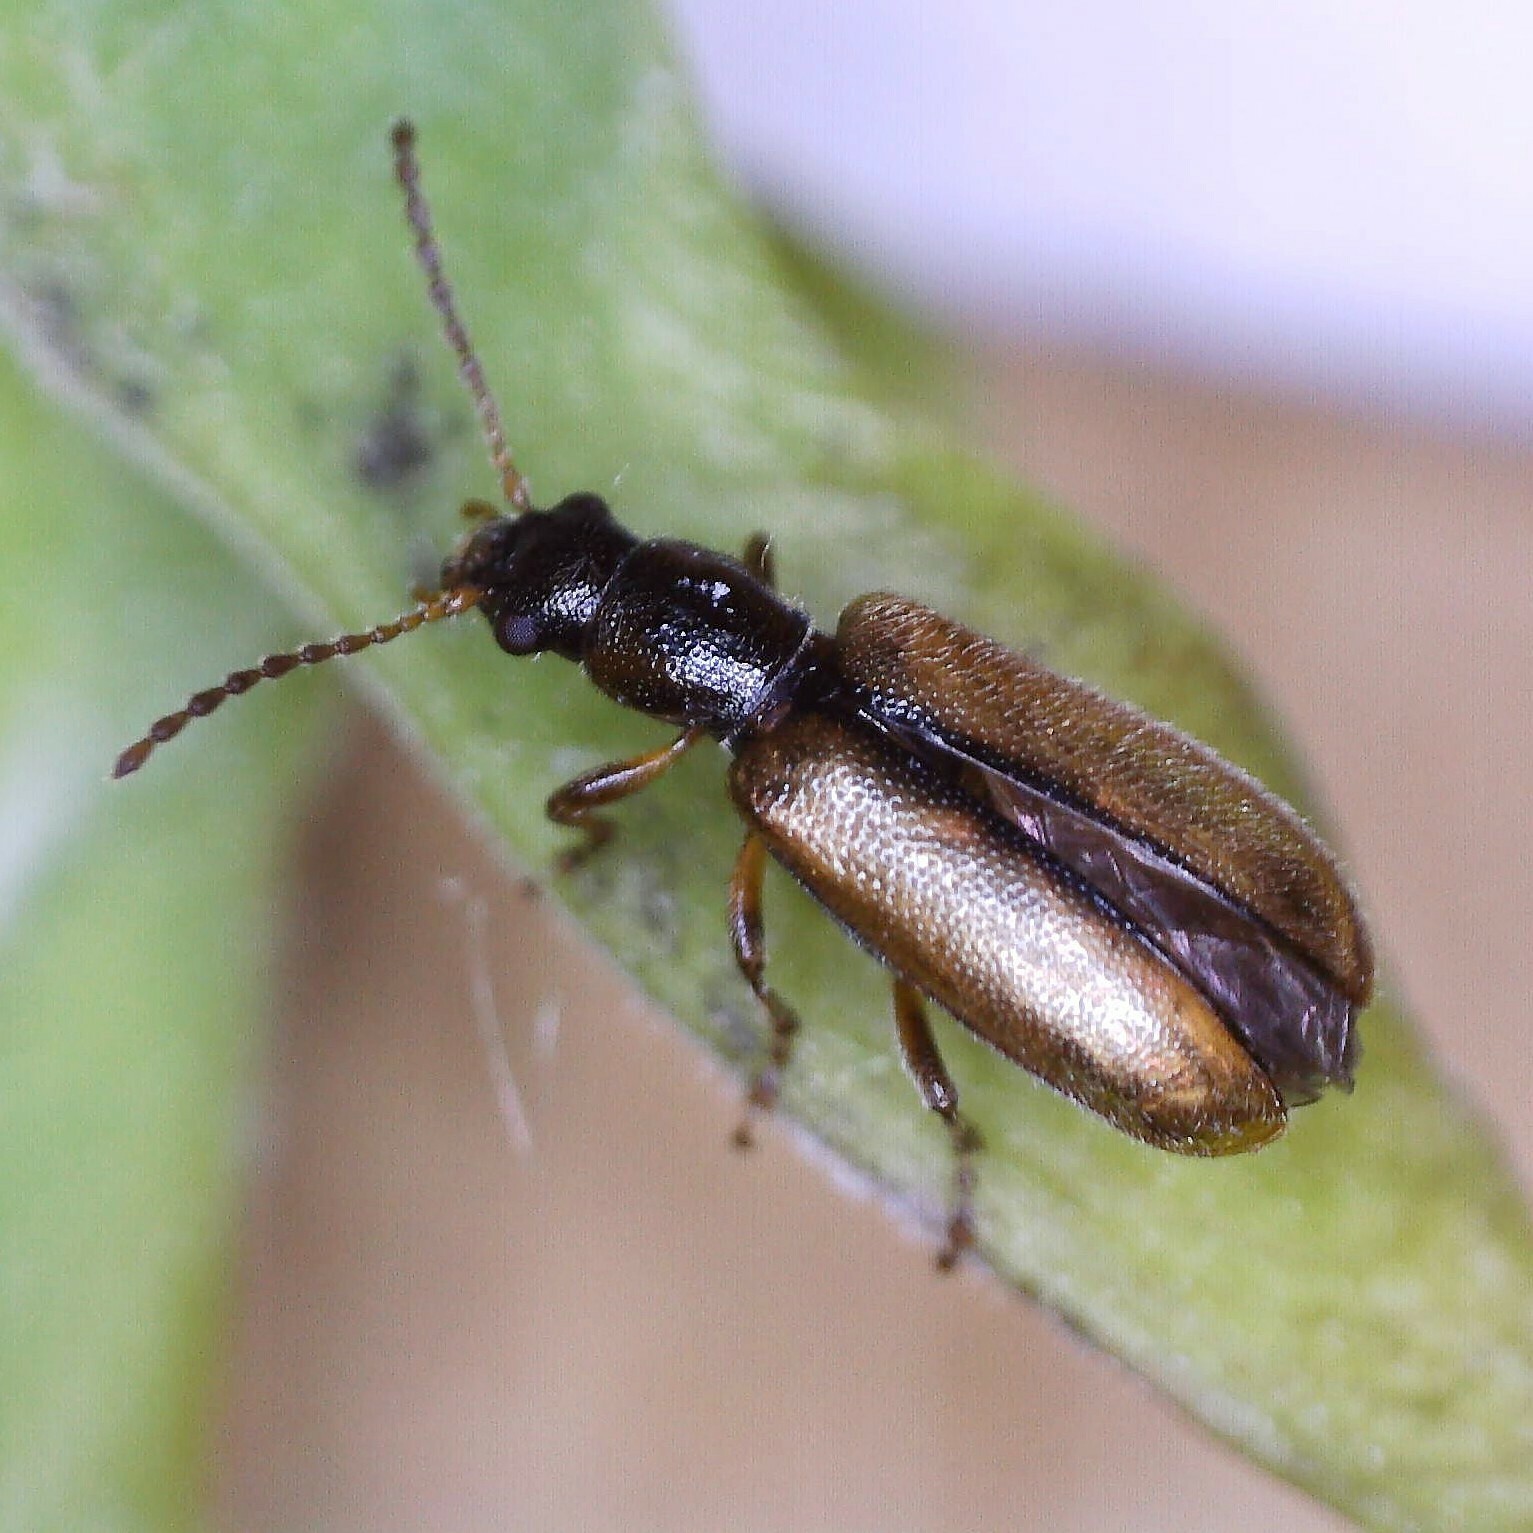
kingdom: Animalia
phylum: Arthropoda
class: Insecta
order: Coleoptera
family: Orsodacnidae
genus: Orsodacne
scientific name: Orsodacne humeralis
